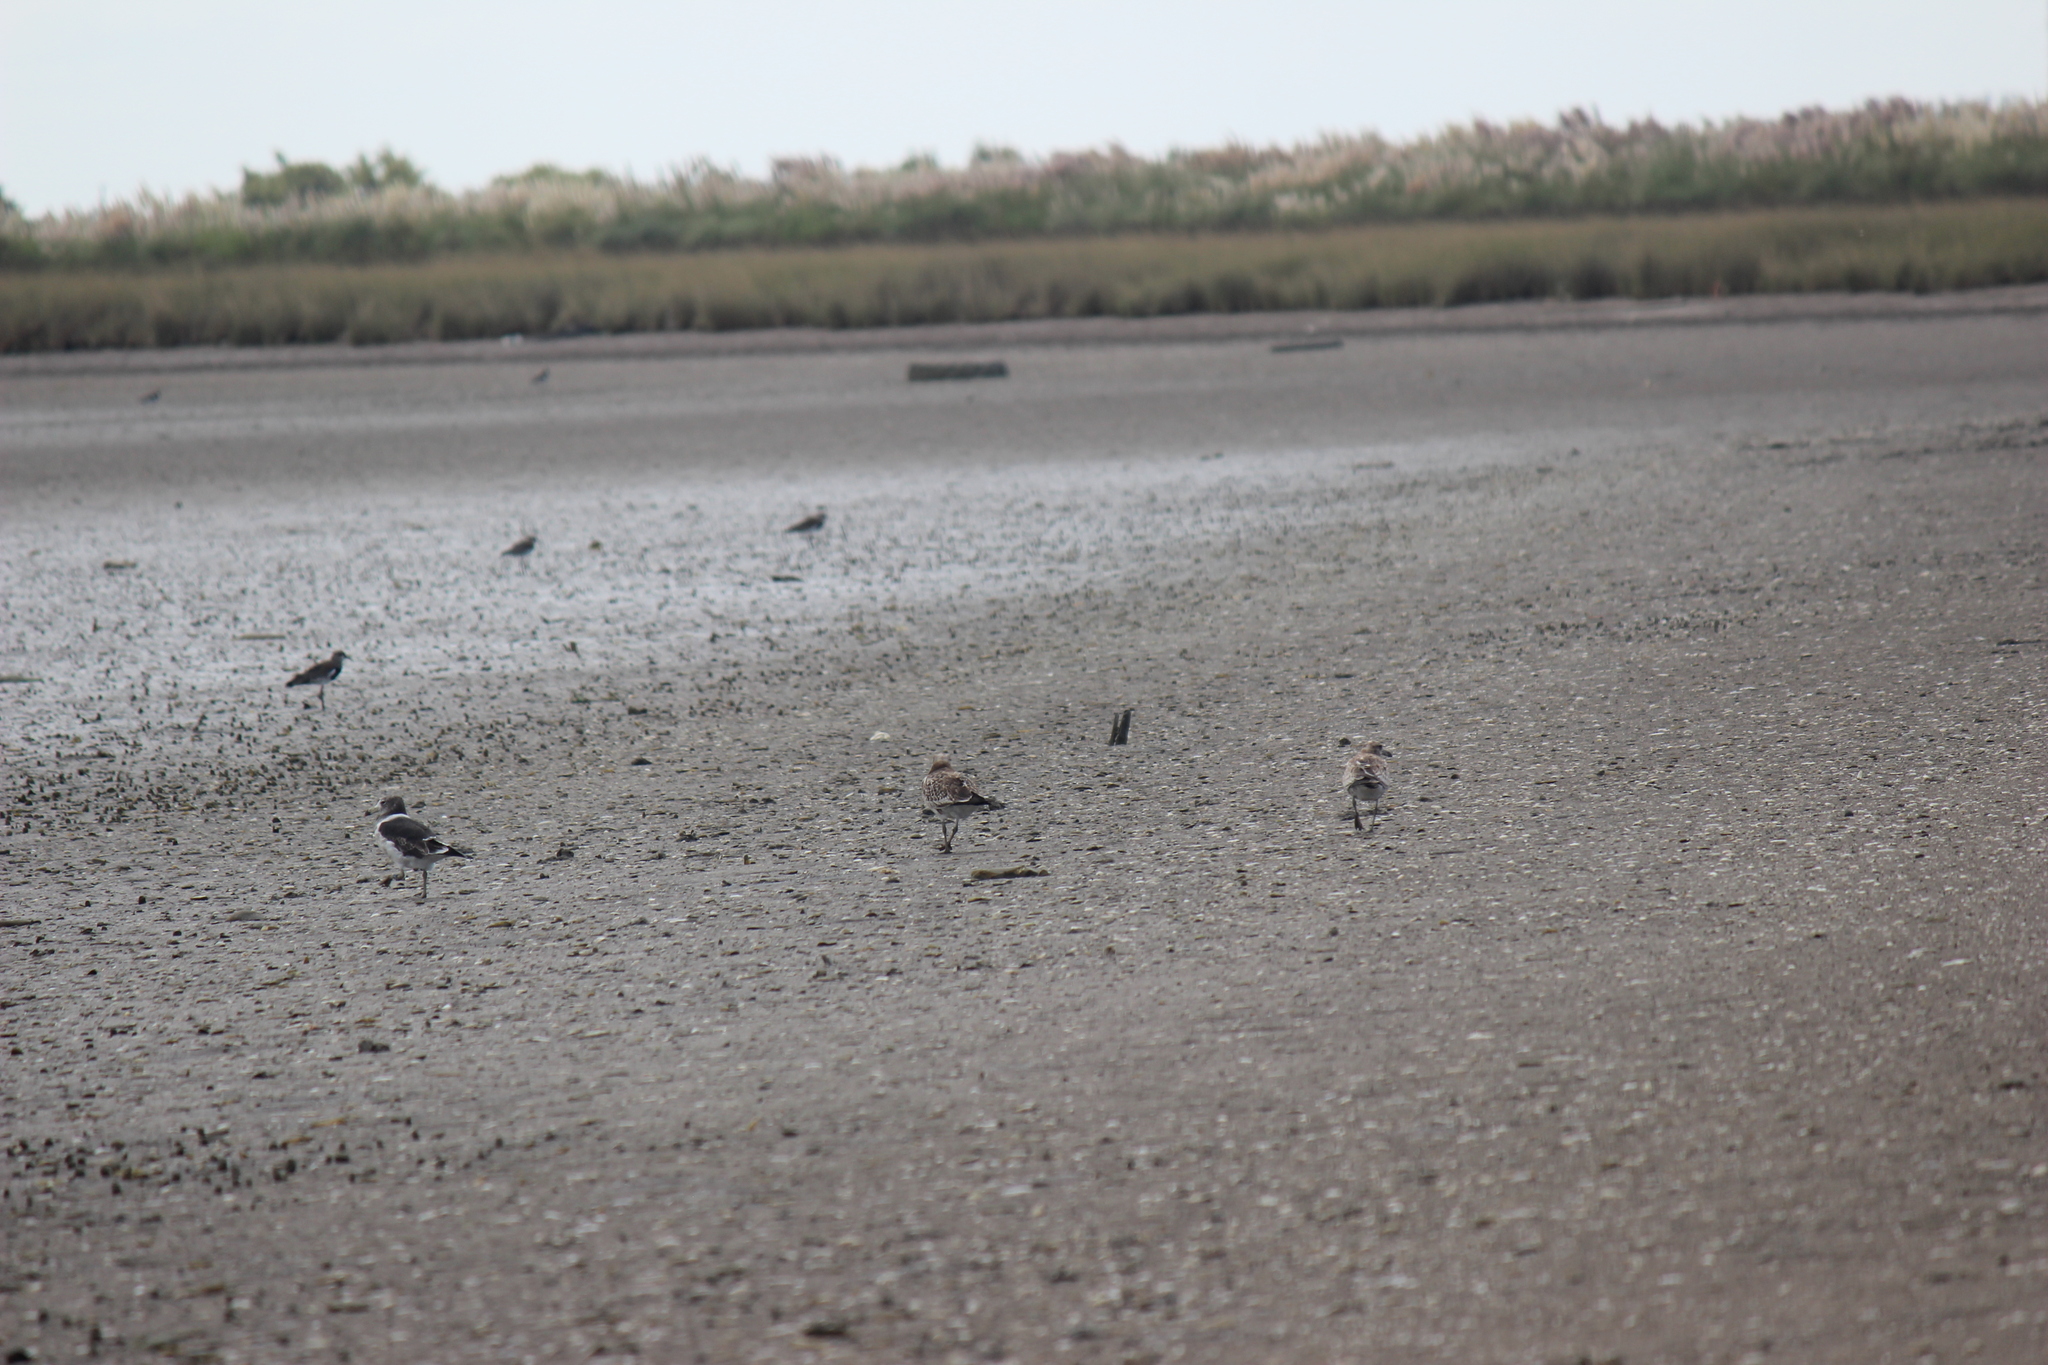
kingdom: Animalia
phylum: Chordata
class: Aves
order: Charadriiformes
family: Laridae
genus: Larus
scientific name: Larus atlanticus
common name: Olrog's gull
